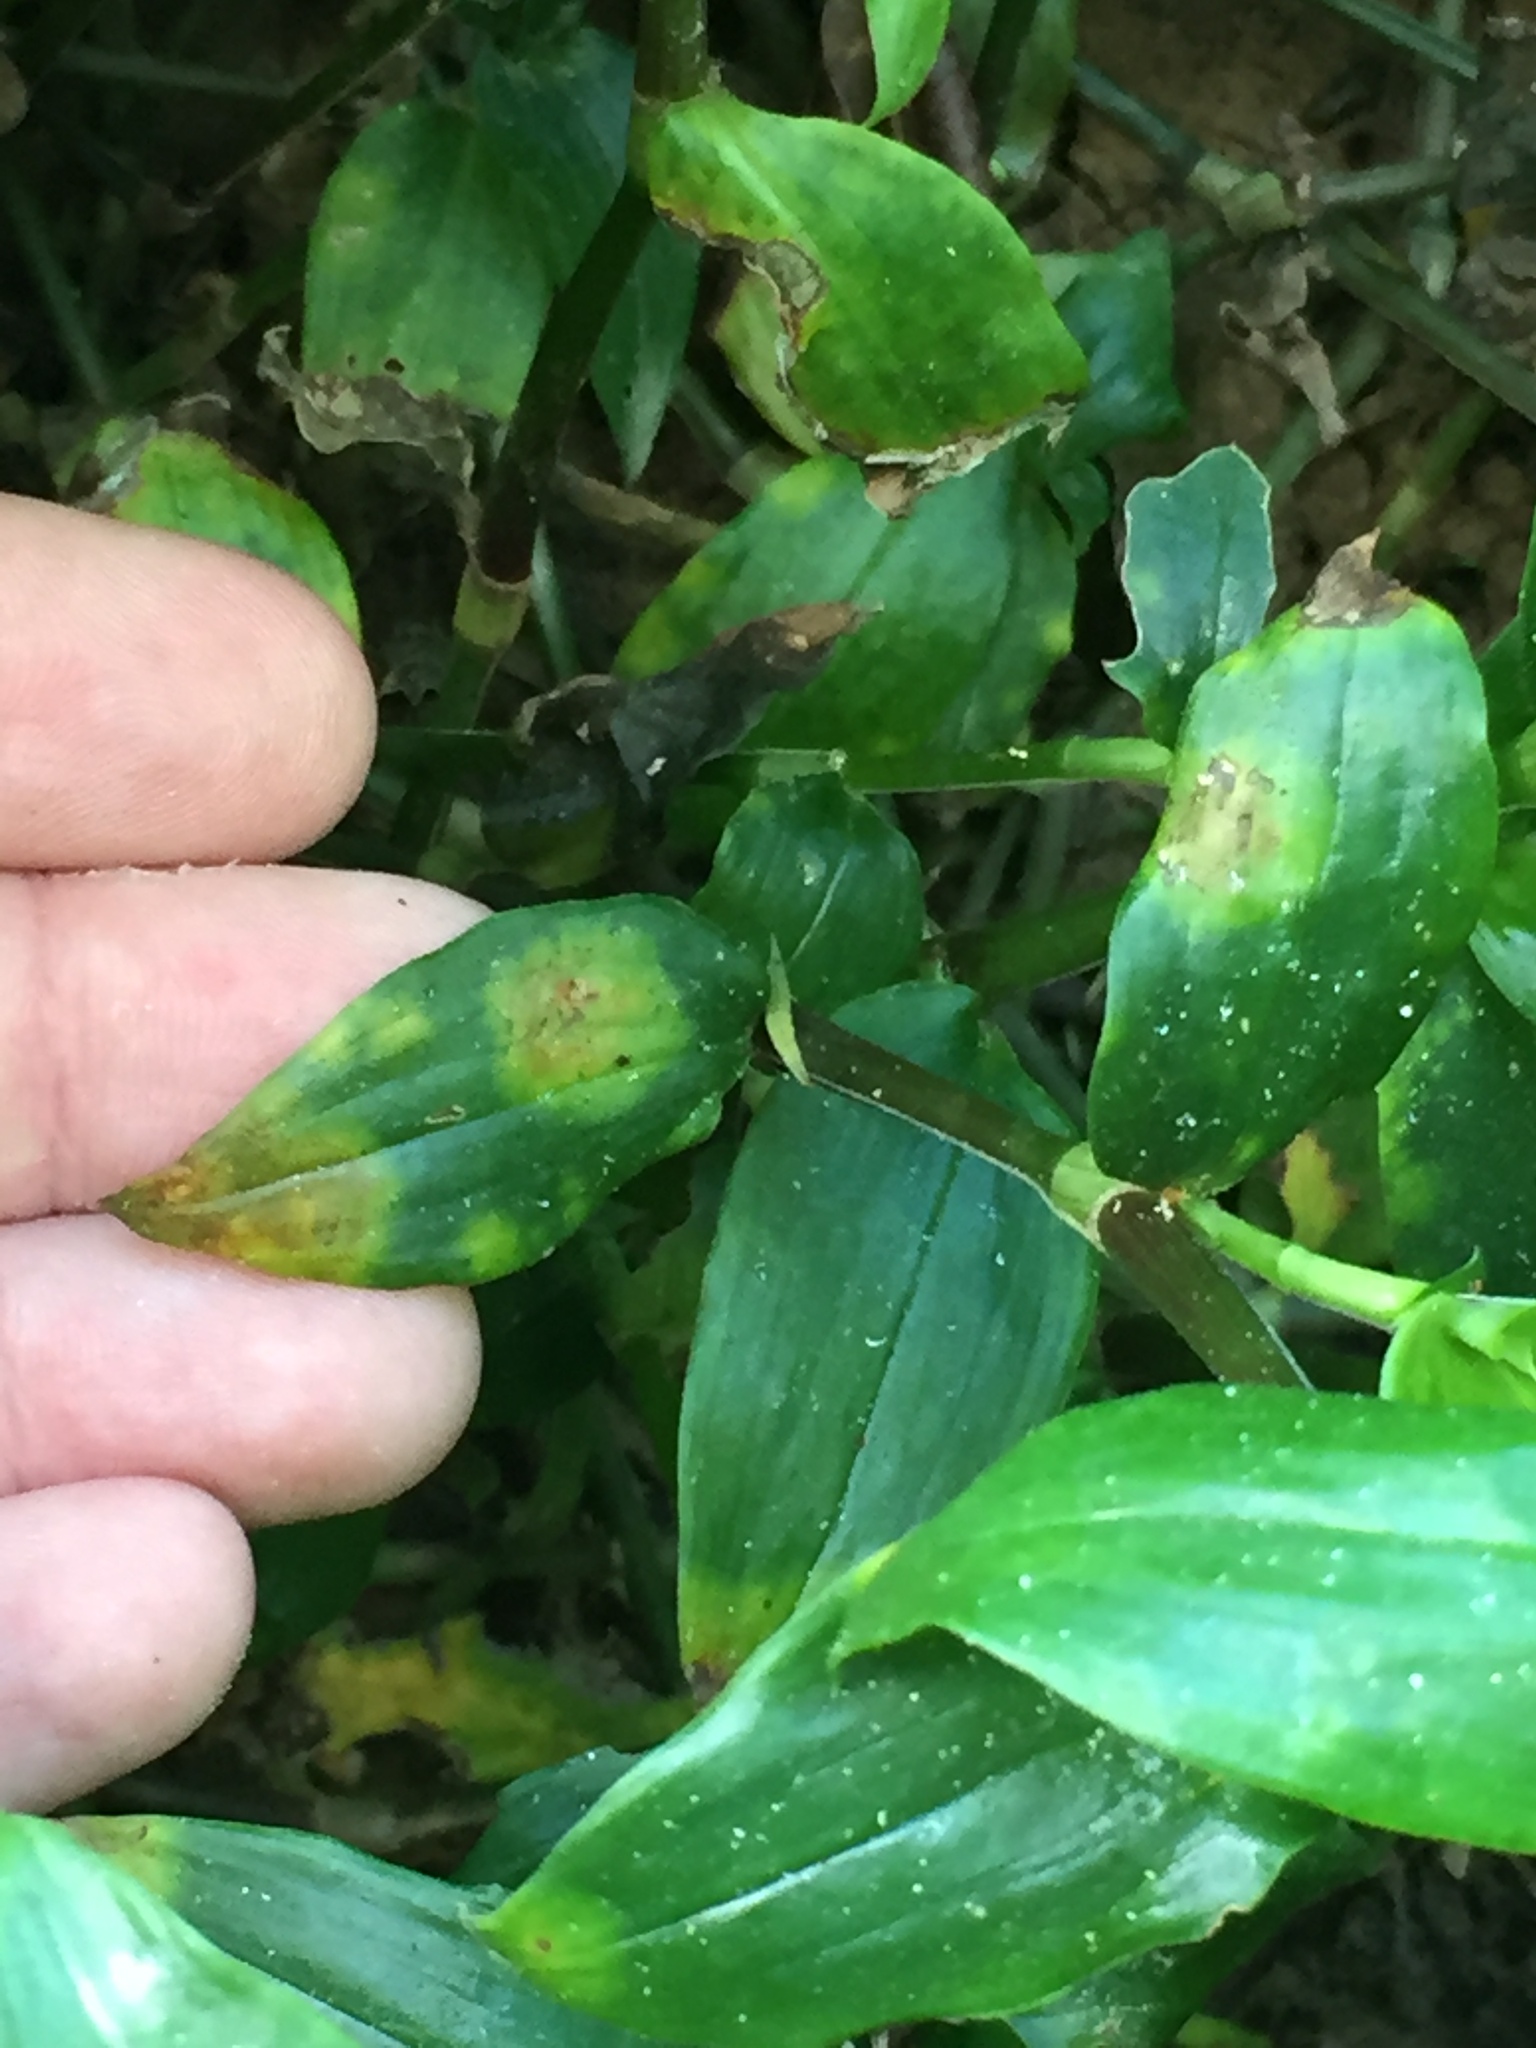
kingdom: Fungi
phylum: Basidiomycota
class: Exobasidiomycetes
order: Exobasidiales
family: Brachybasidiaceae
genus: Kordyana
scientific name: Kordyana brasiliensis
